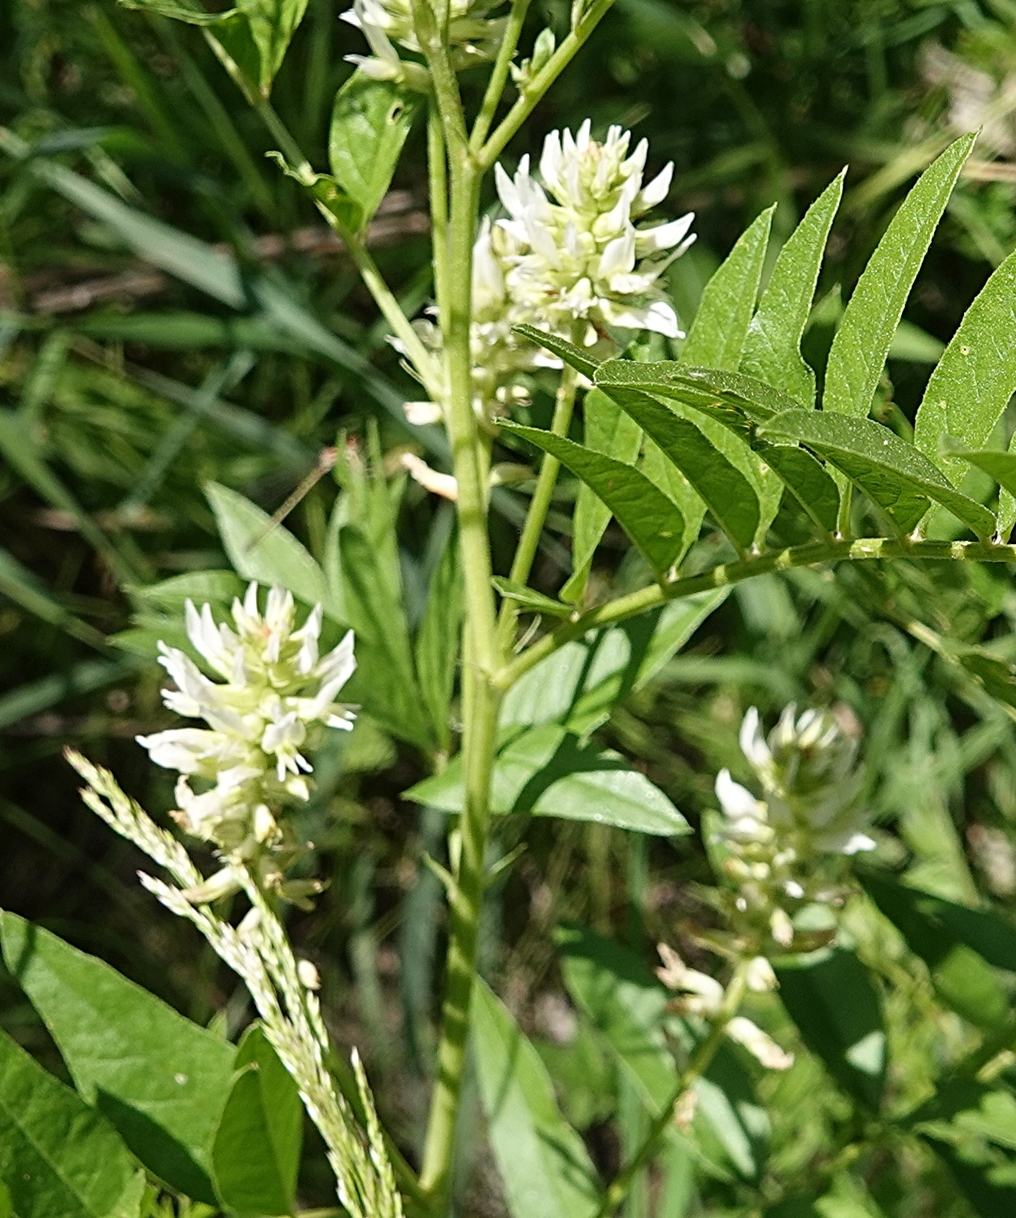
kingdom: Plantae
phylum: Tracheophyta
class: Magnoliopsida
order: Fabales
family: Fabaceae
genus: Glycyrrhiza
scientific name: Glycyrrhiza lepidota
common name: American liquorice
